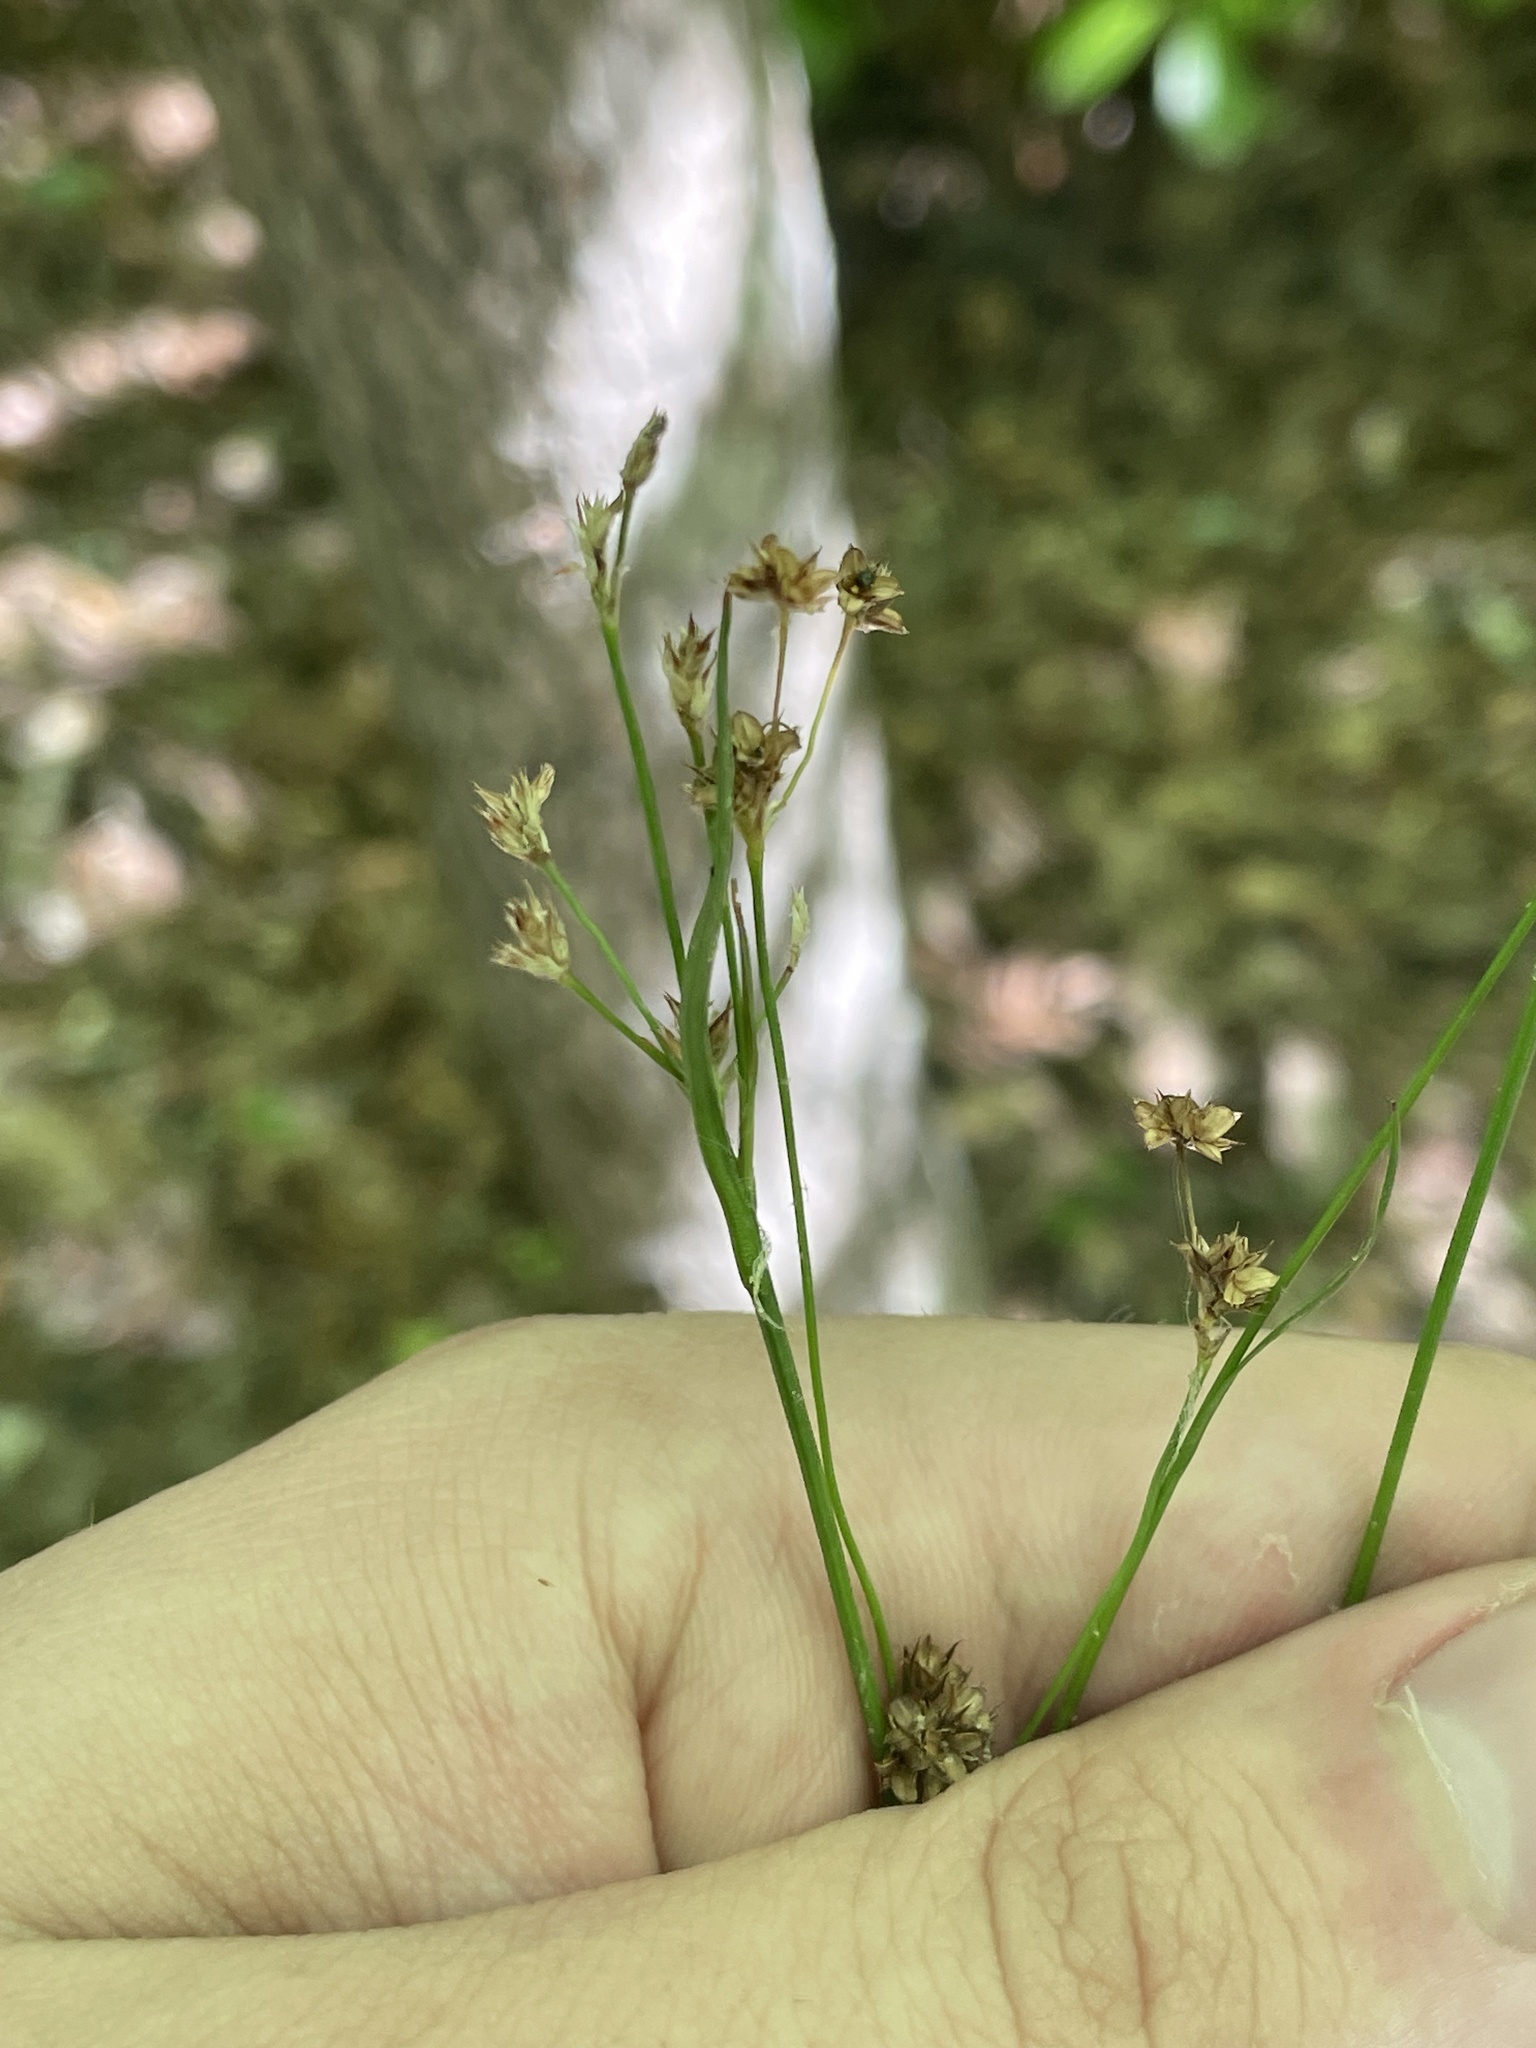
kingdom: Plantae
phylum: Tracheophyta
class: Liliopsida
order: Poales
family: Juncaceae
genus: Luzula
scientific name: Luzula echinata
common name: Hedgehog woodrush
